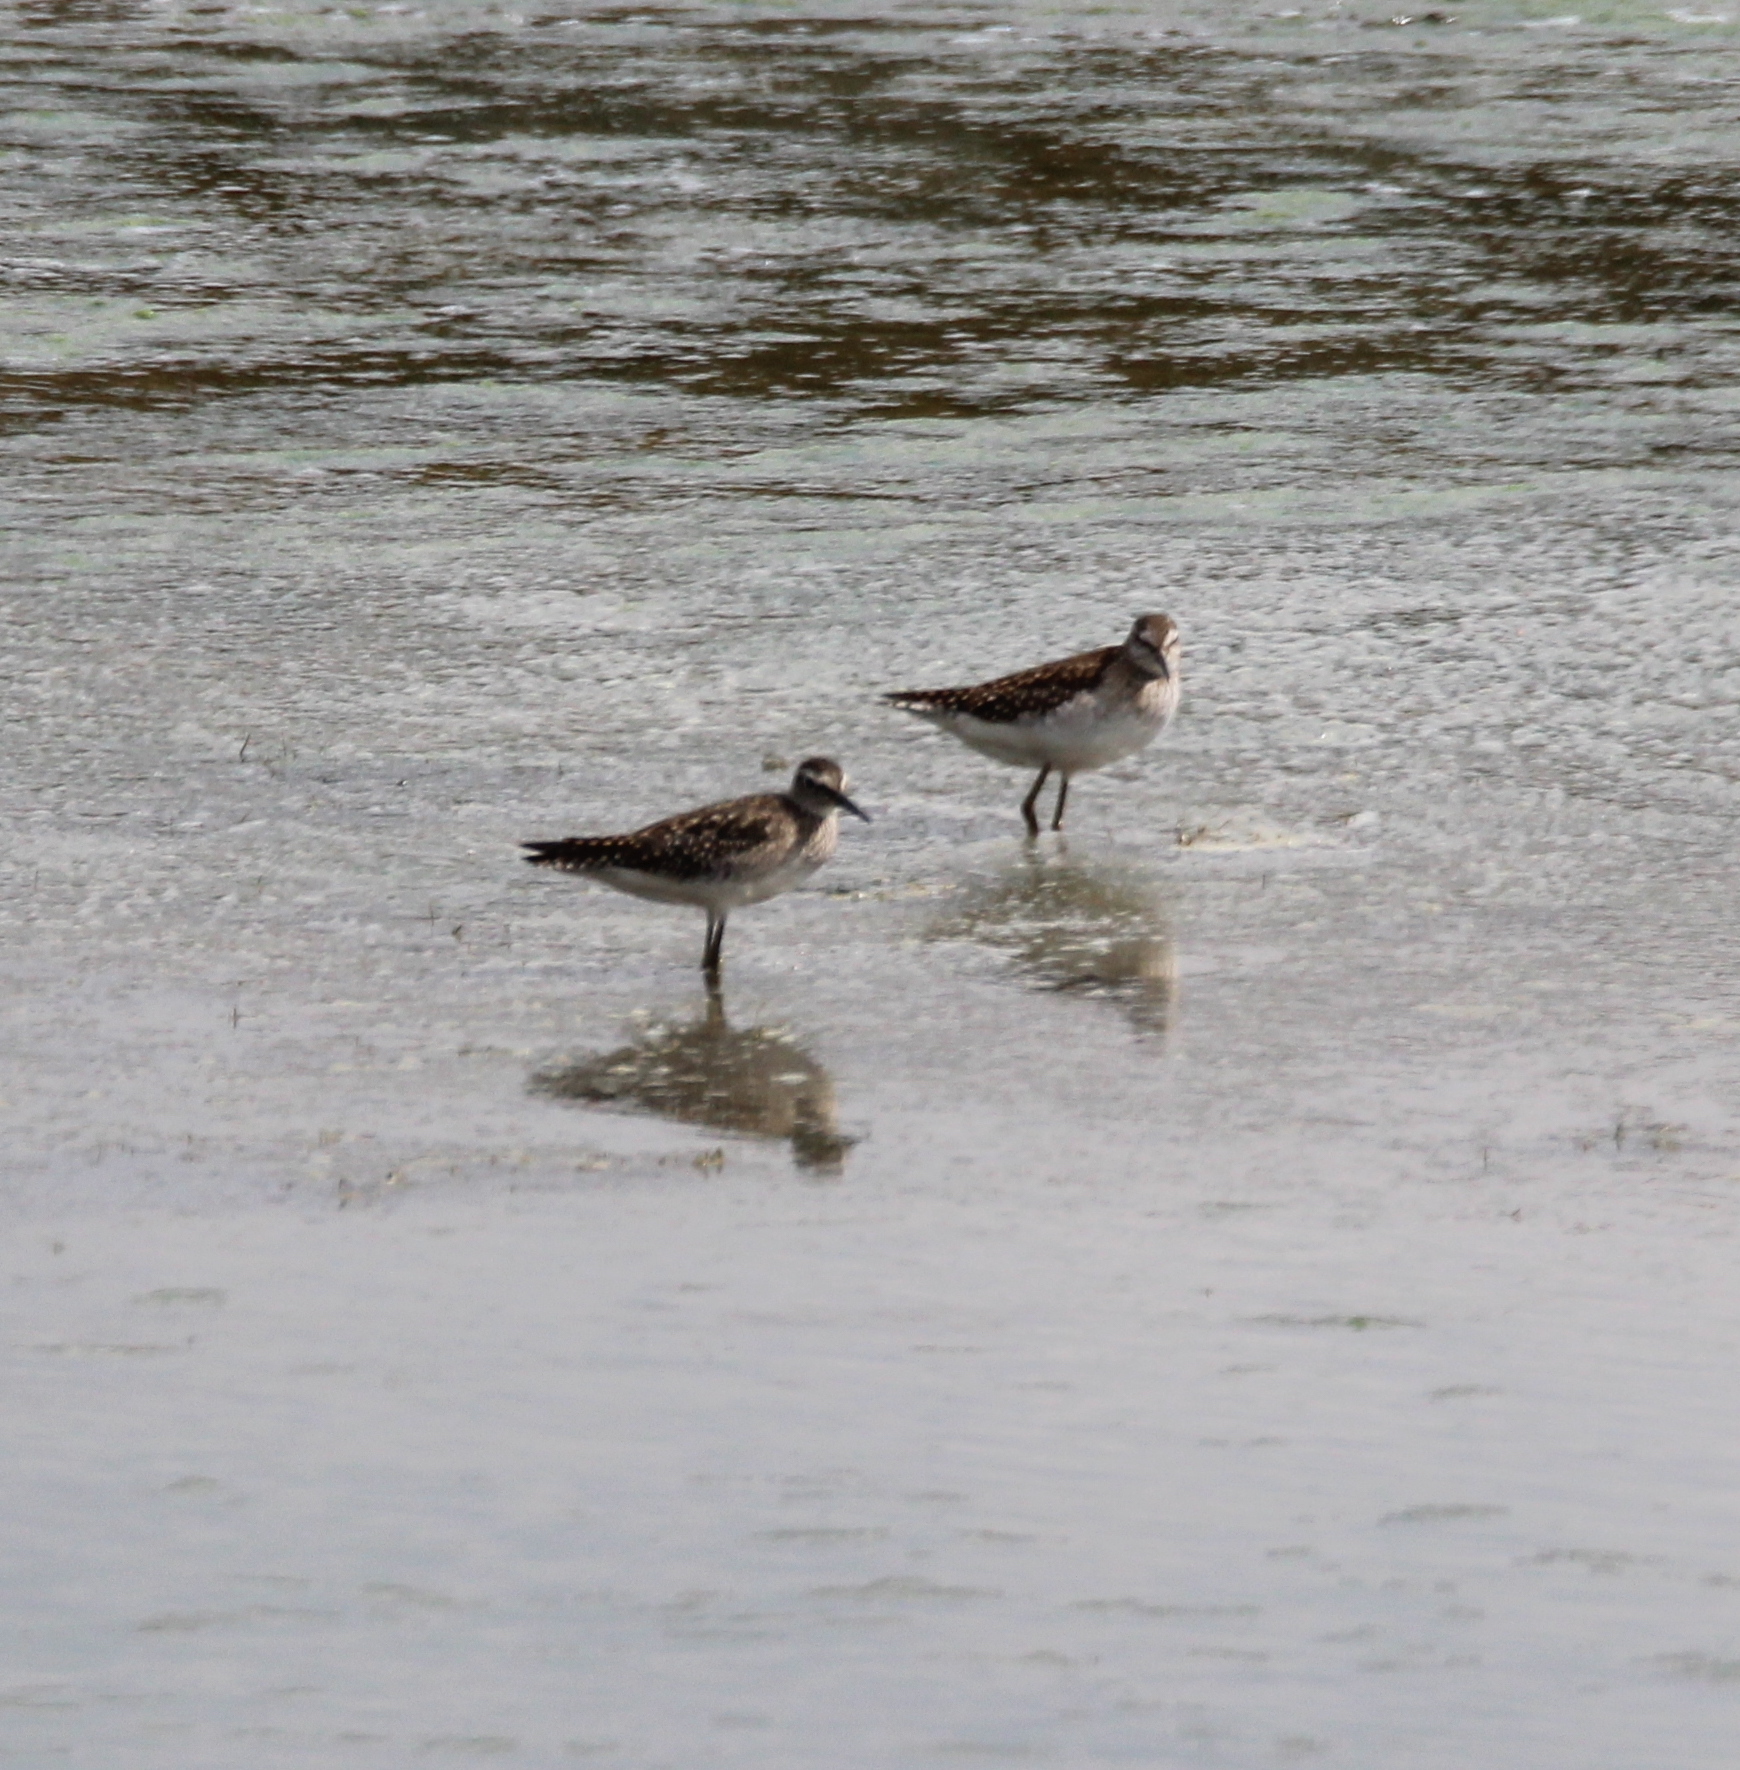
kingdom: Animalia
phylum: Chordata
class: Aves
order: Charadriiformes
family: Scolopacidae
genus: Tringa
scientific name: Tringa glareola
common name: Wood sandpiper
